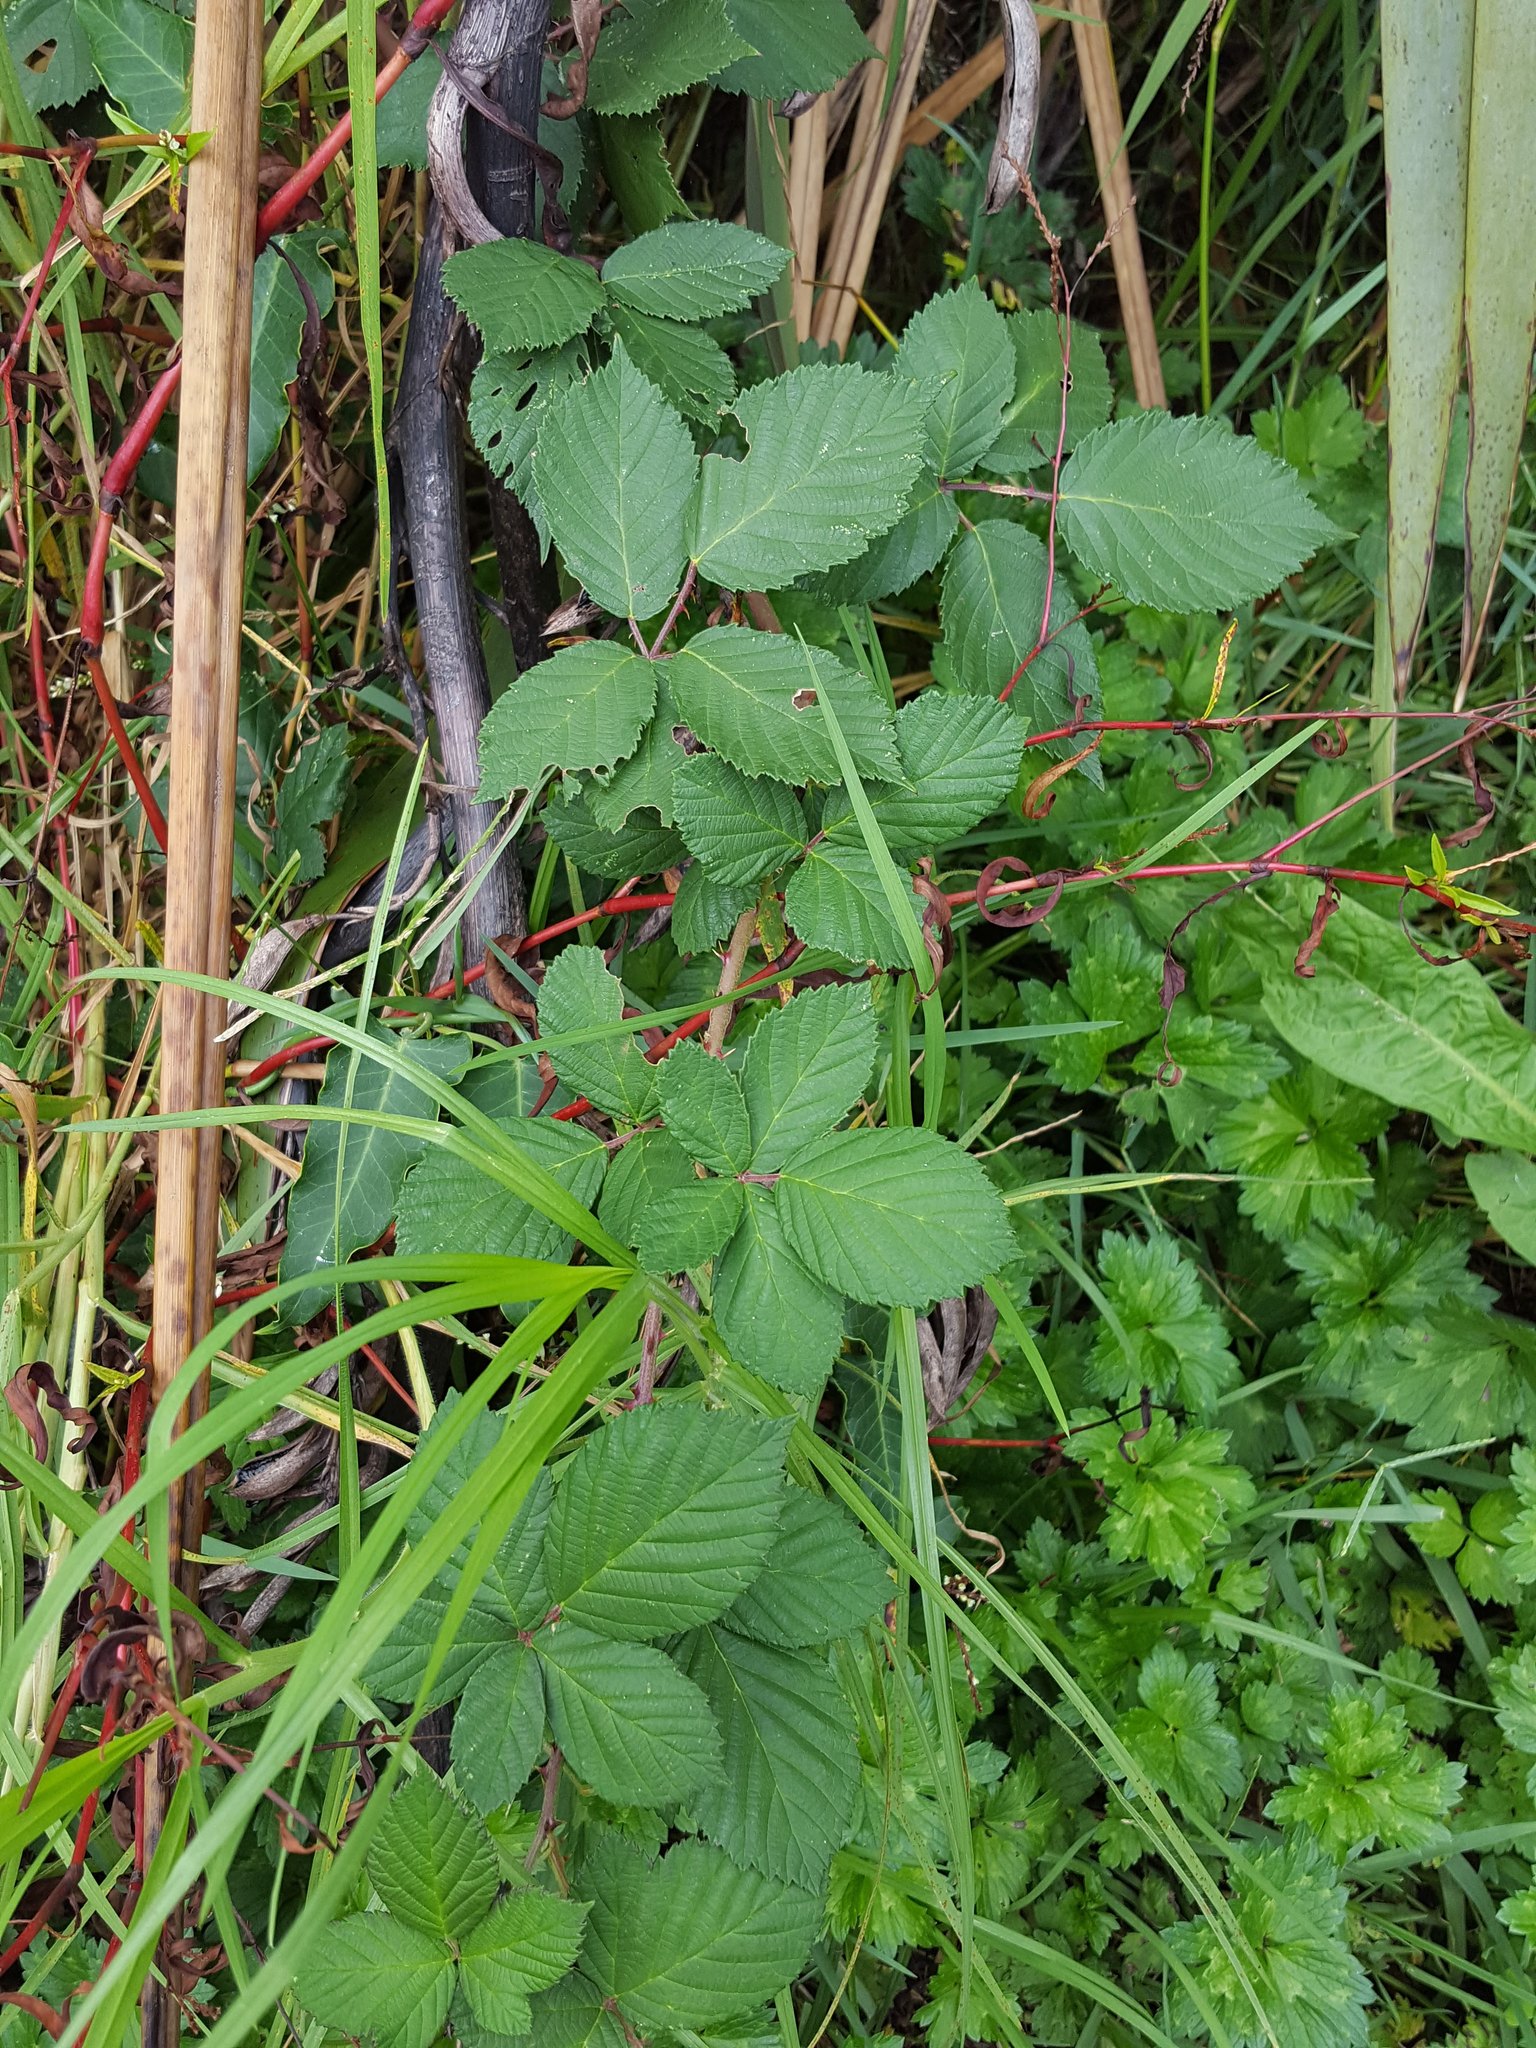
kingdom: Plantae
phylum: Tracheophyta
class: Magnoliopsida
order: Rosales
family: Rosaceae
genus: Rubus
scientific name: Rubus
